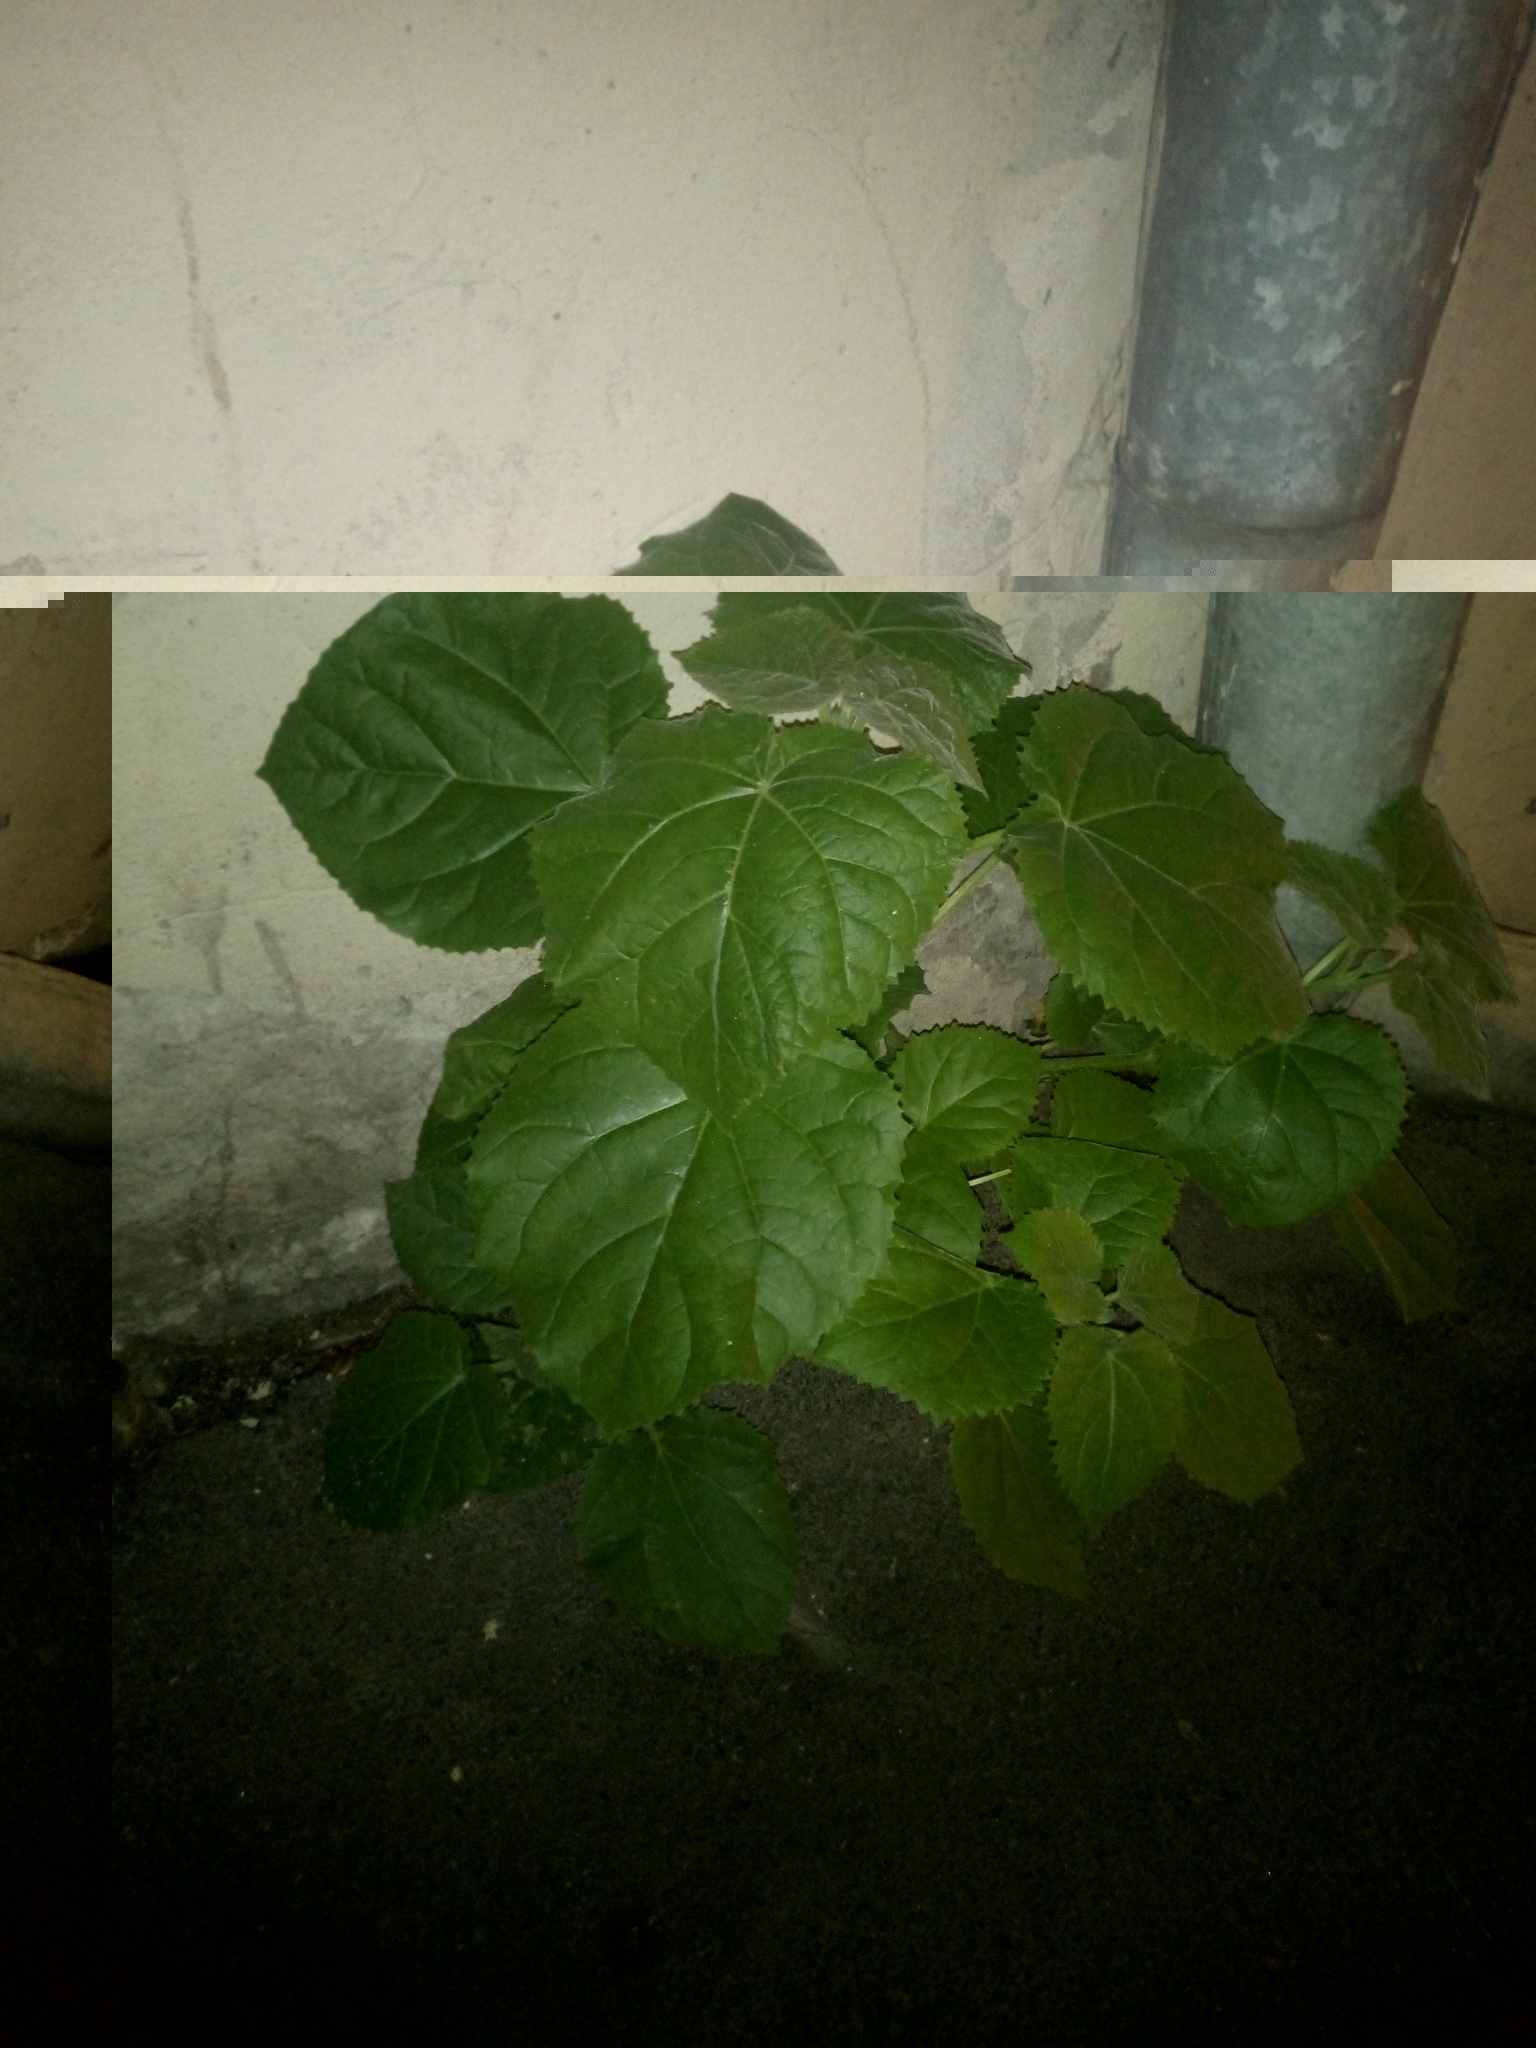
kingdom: Plantae
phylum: Tracheophyta
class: Magnoliopsida
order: Lamiales
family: Paulowniaceae
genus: Paulownia
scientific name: Paulownia tomentosa
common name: Foxglove-tree
